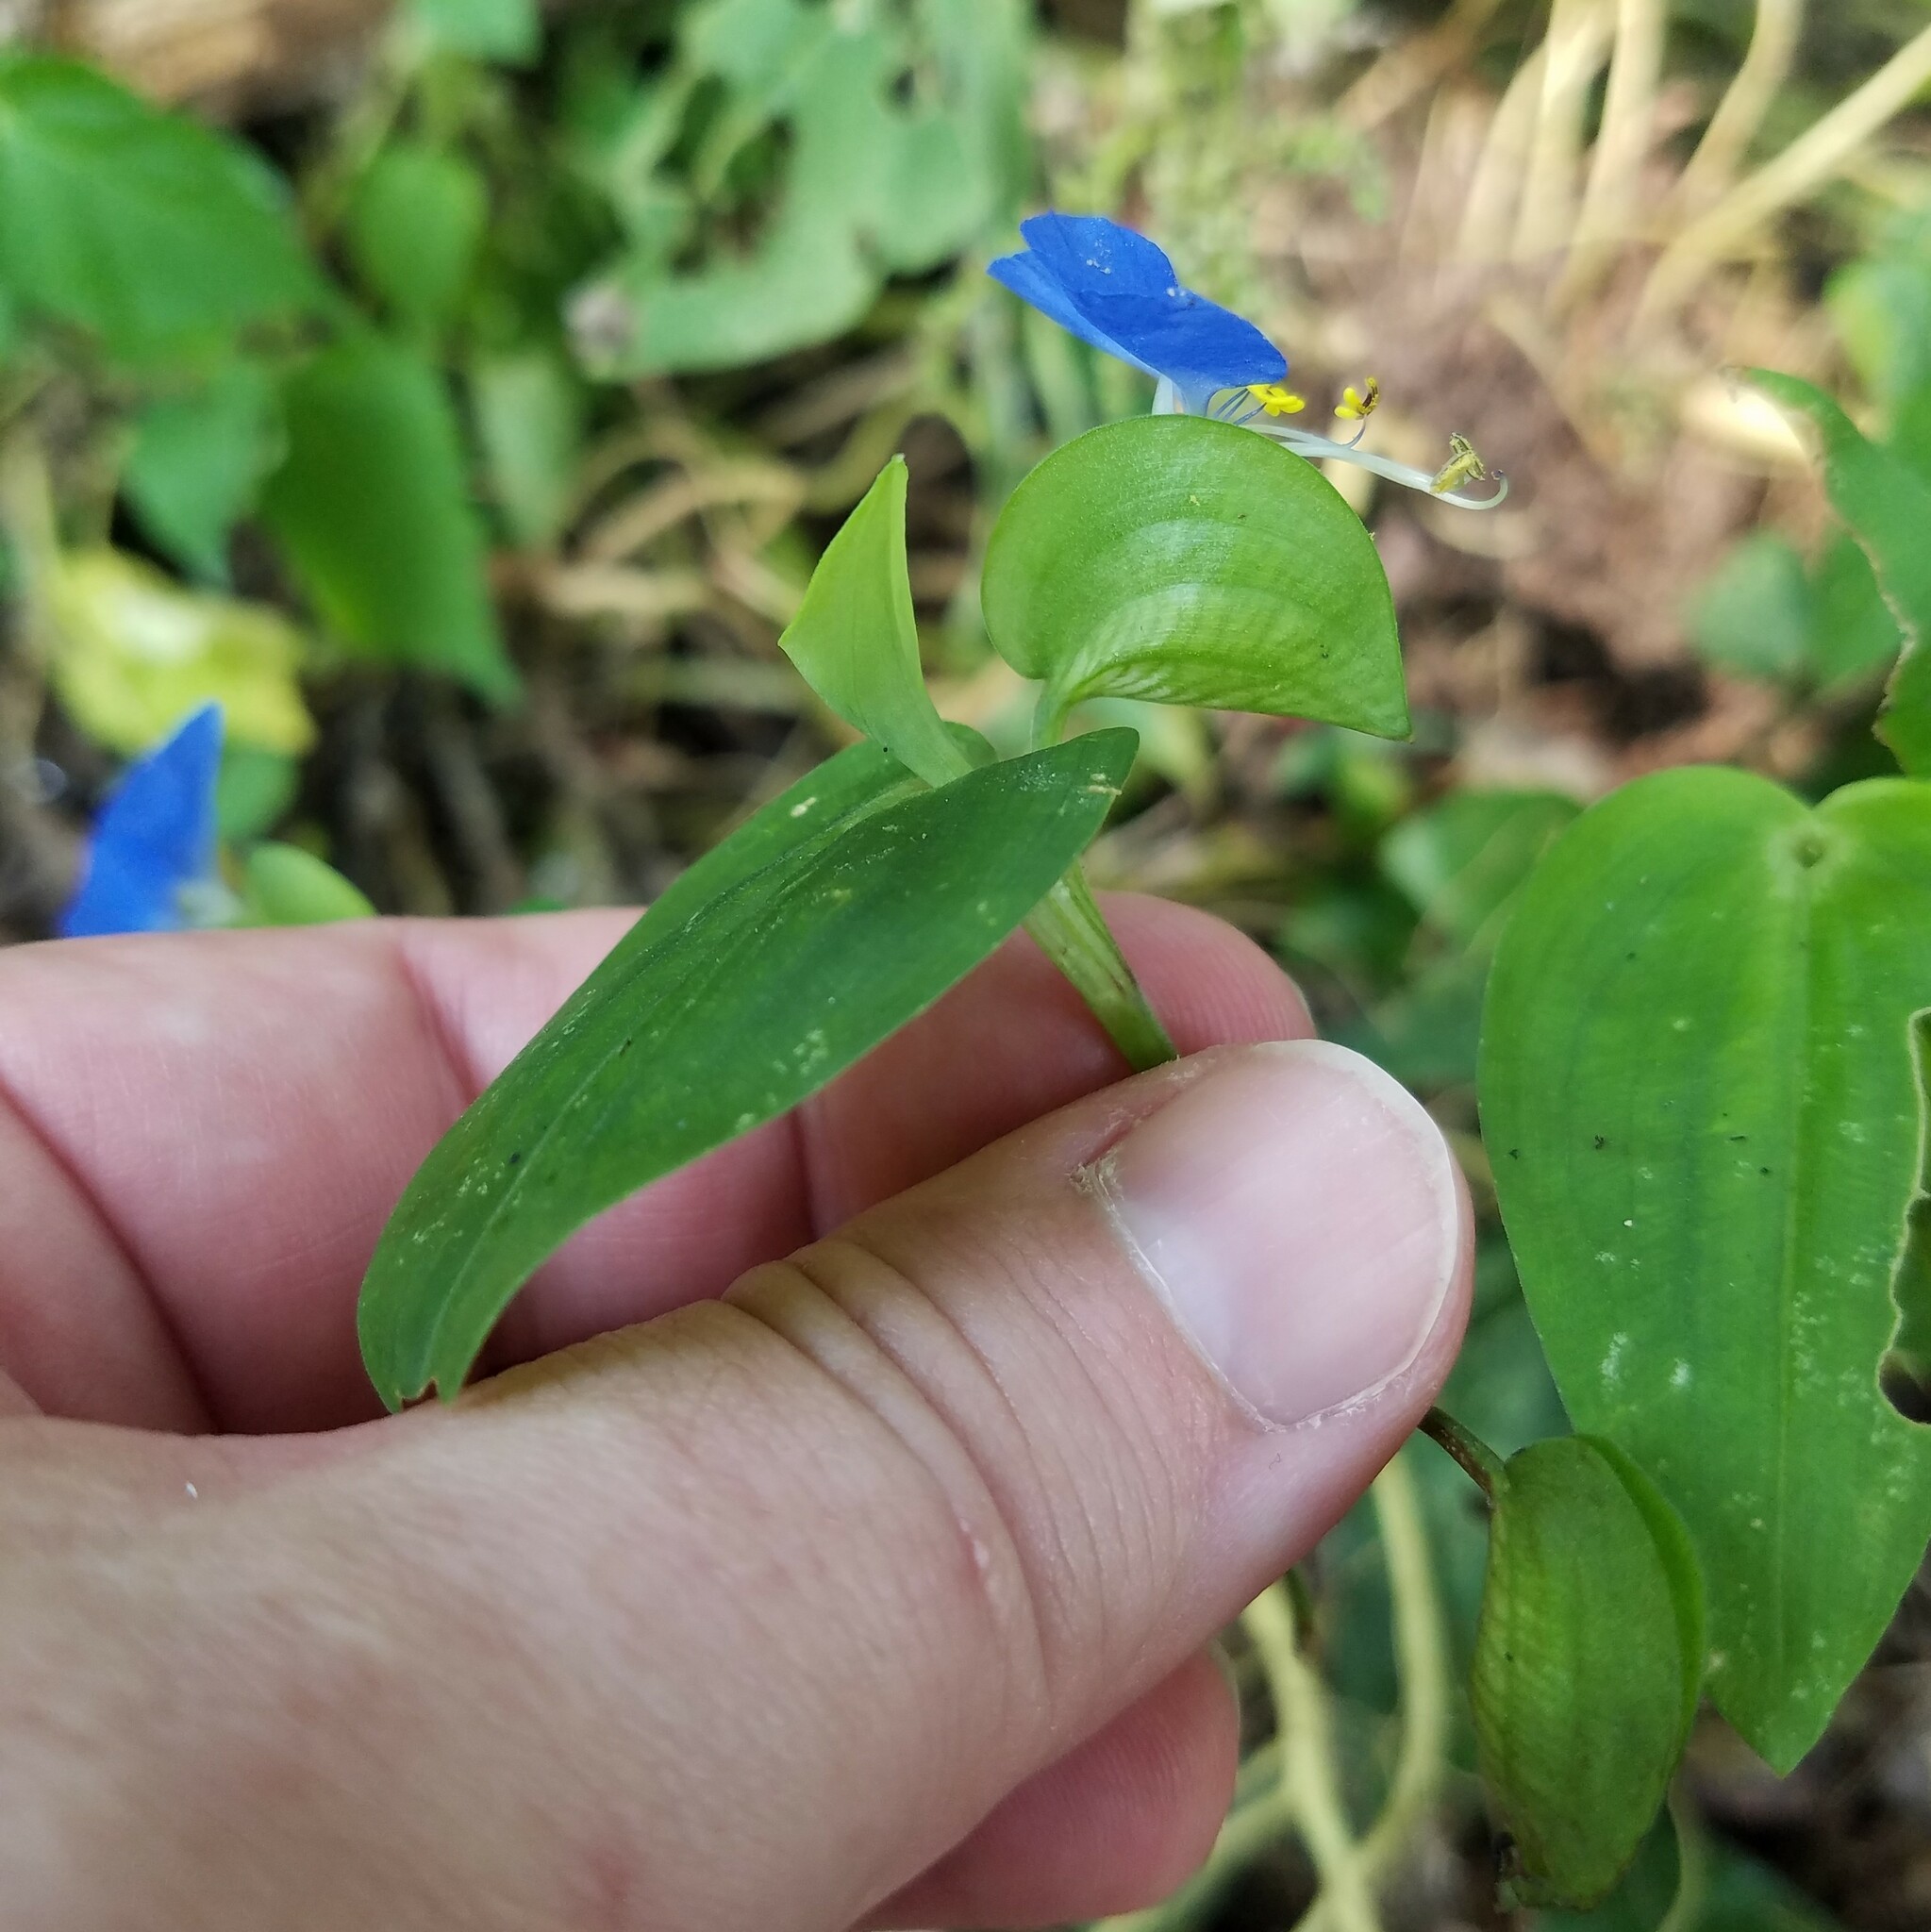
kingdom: Plantae
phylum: Tracheophyta
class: Liliopsida
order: Commelinales
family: Commelinaceae
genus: Commelina
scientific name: Commelina communis
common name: Asiatic dayflower
